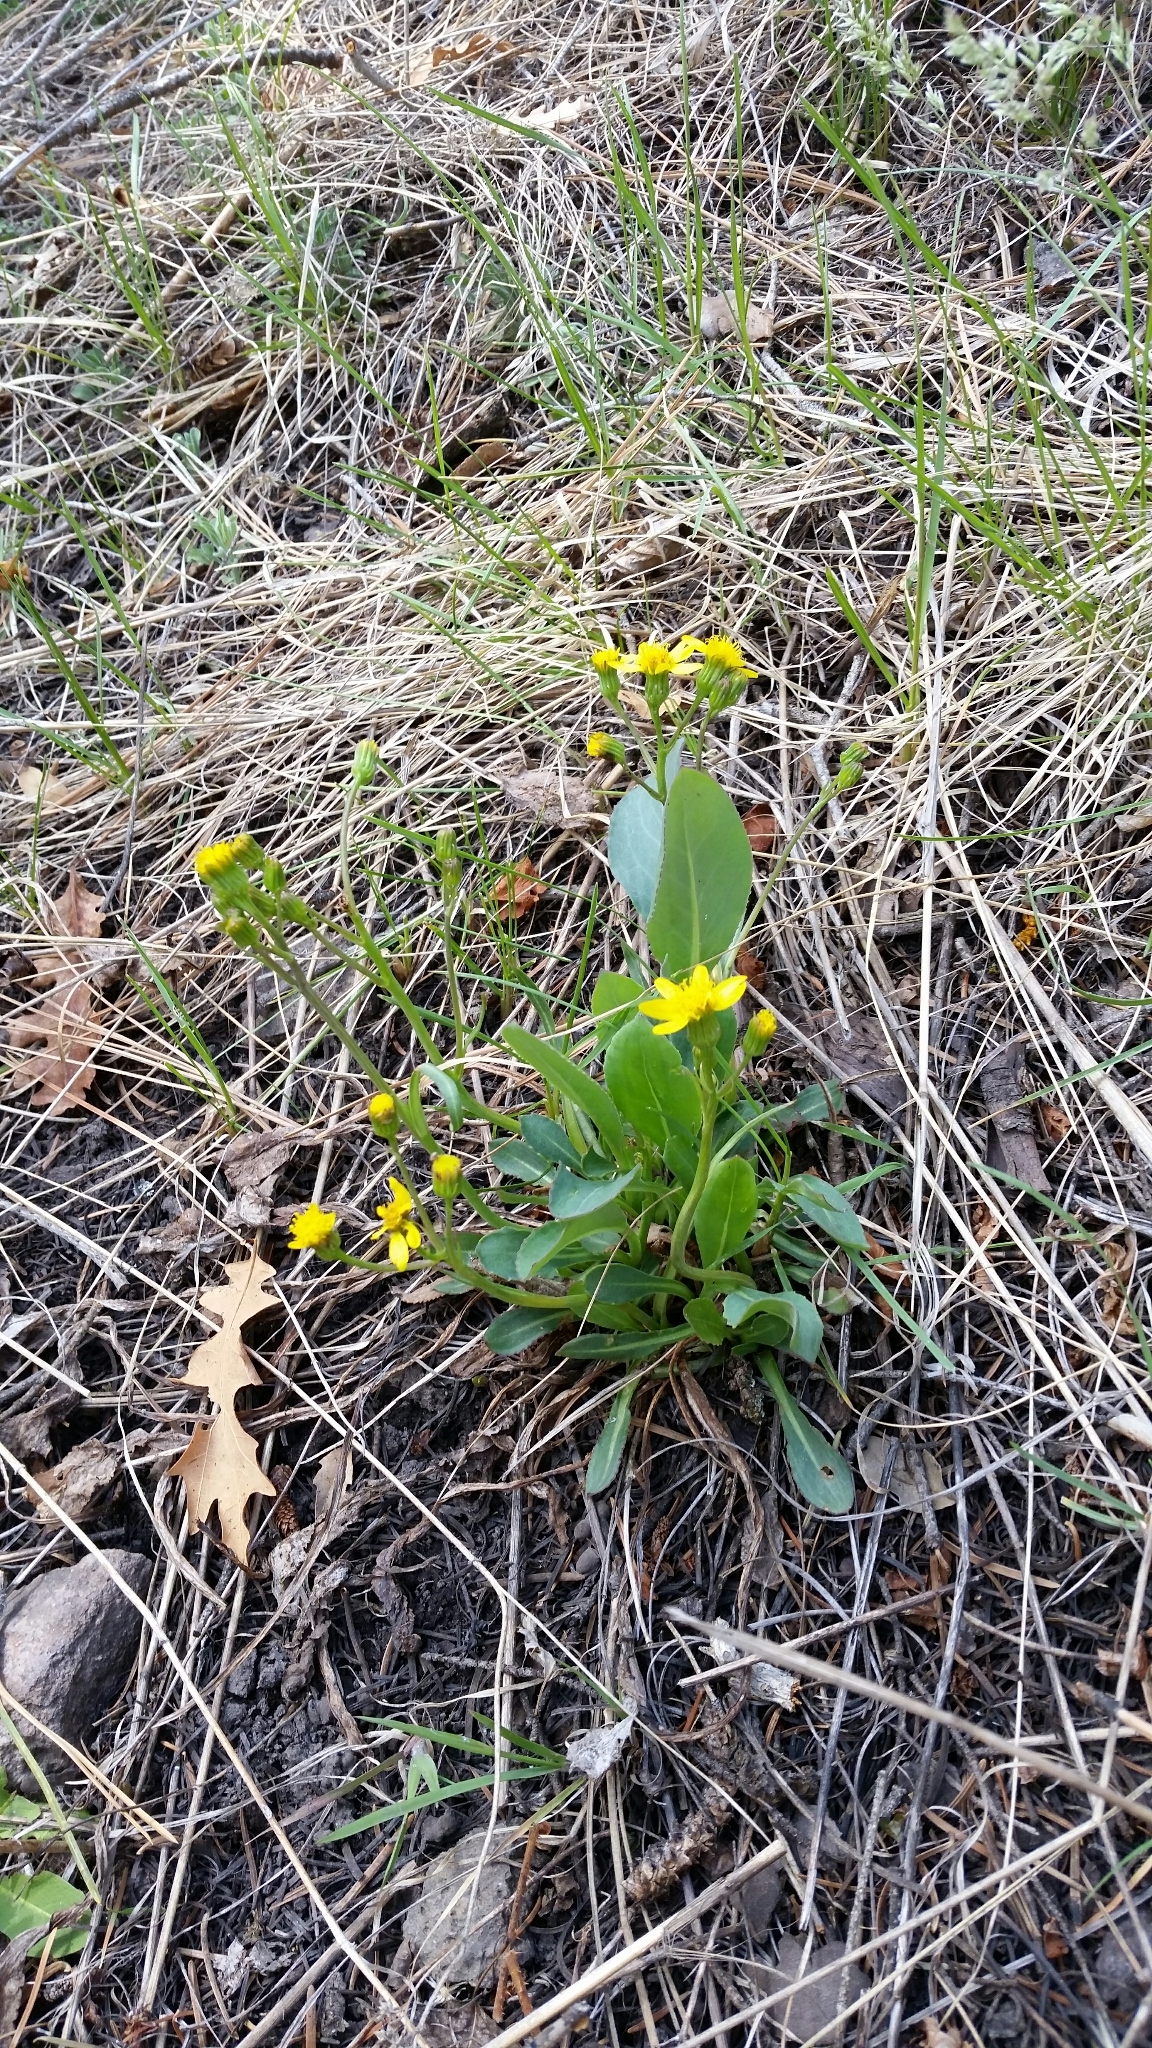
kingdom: Plantae
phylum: Tracheophyta
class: Magnoliopsida
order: Asterales
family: Asteraceae
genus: Senecio
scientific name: Senecio wootonii
